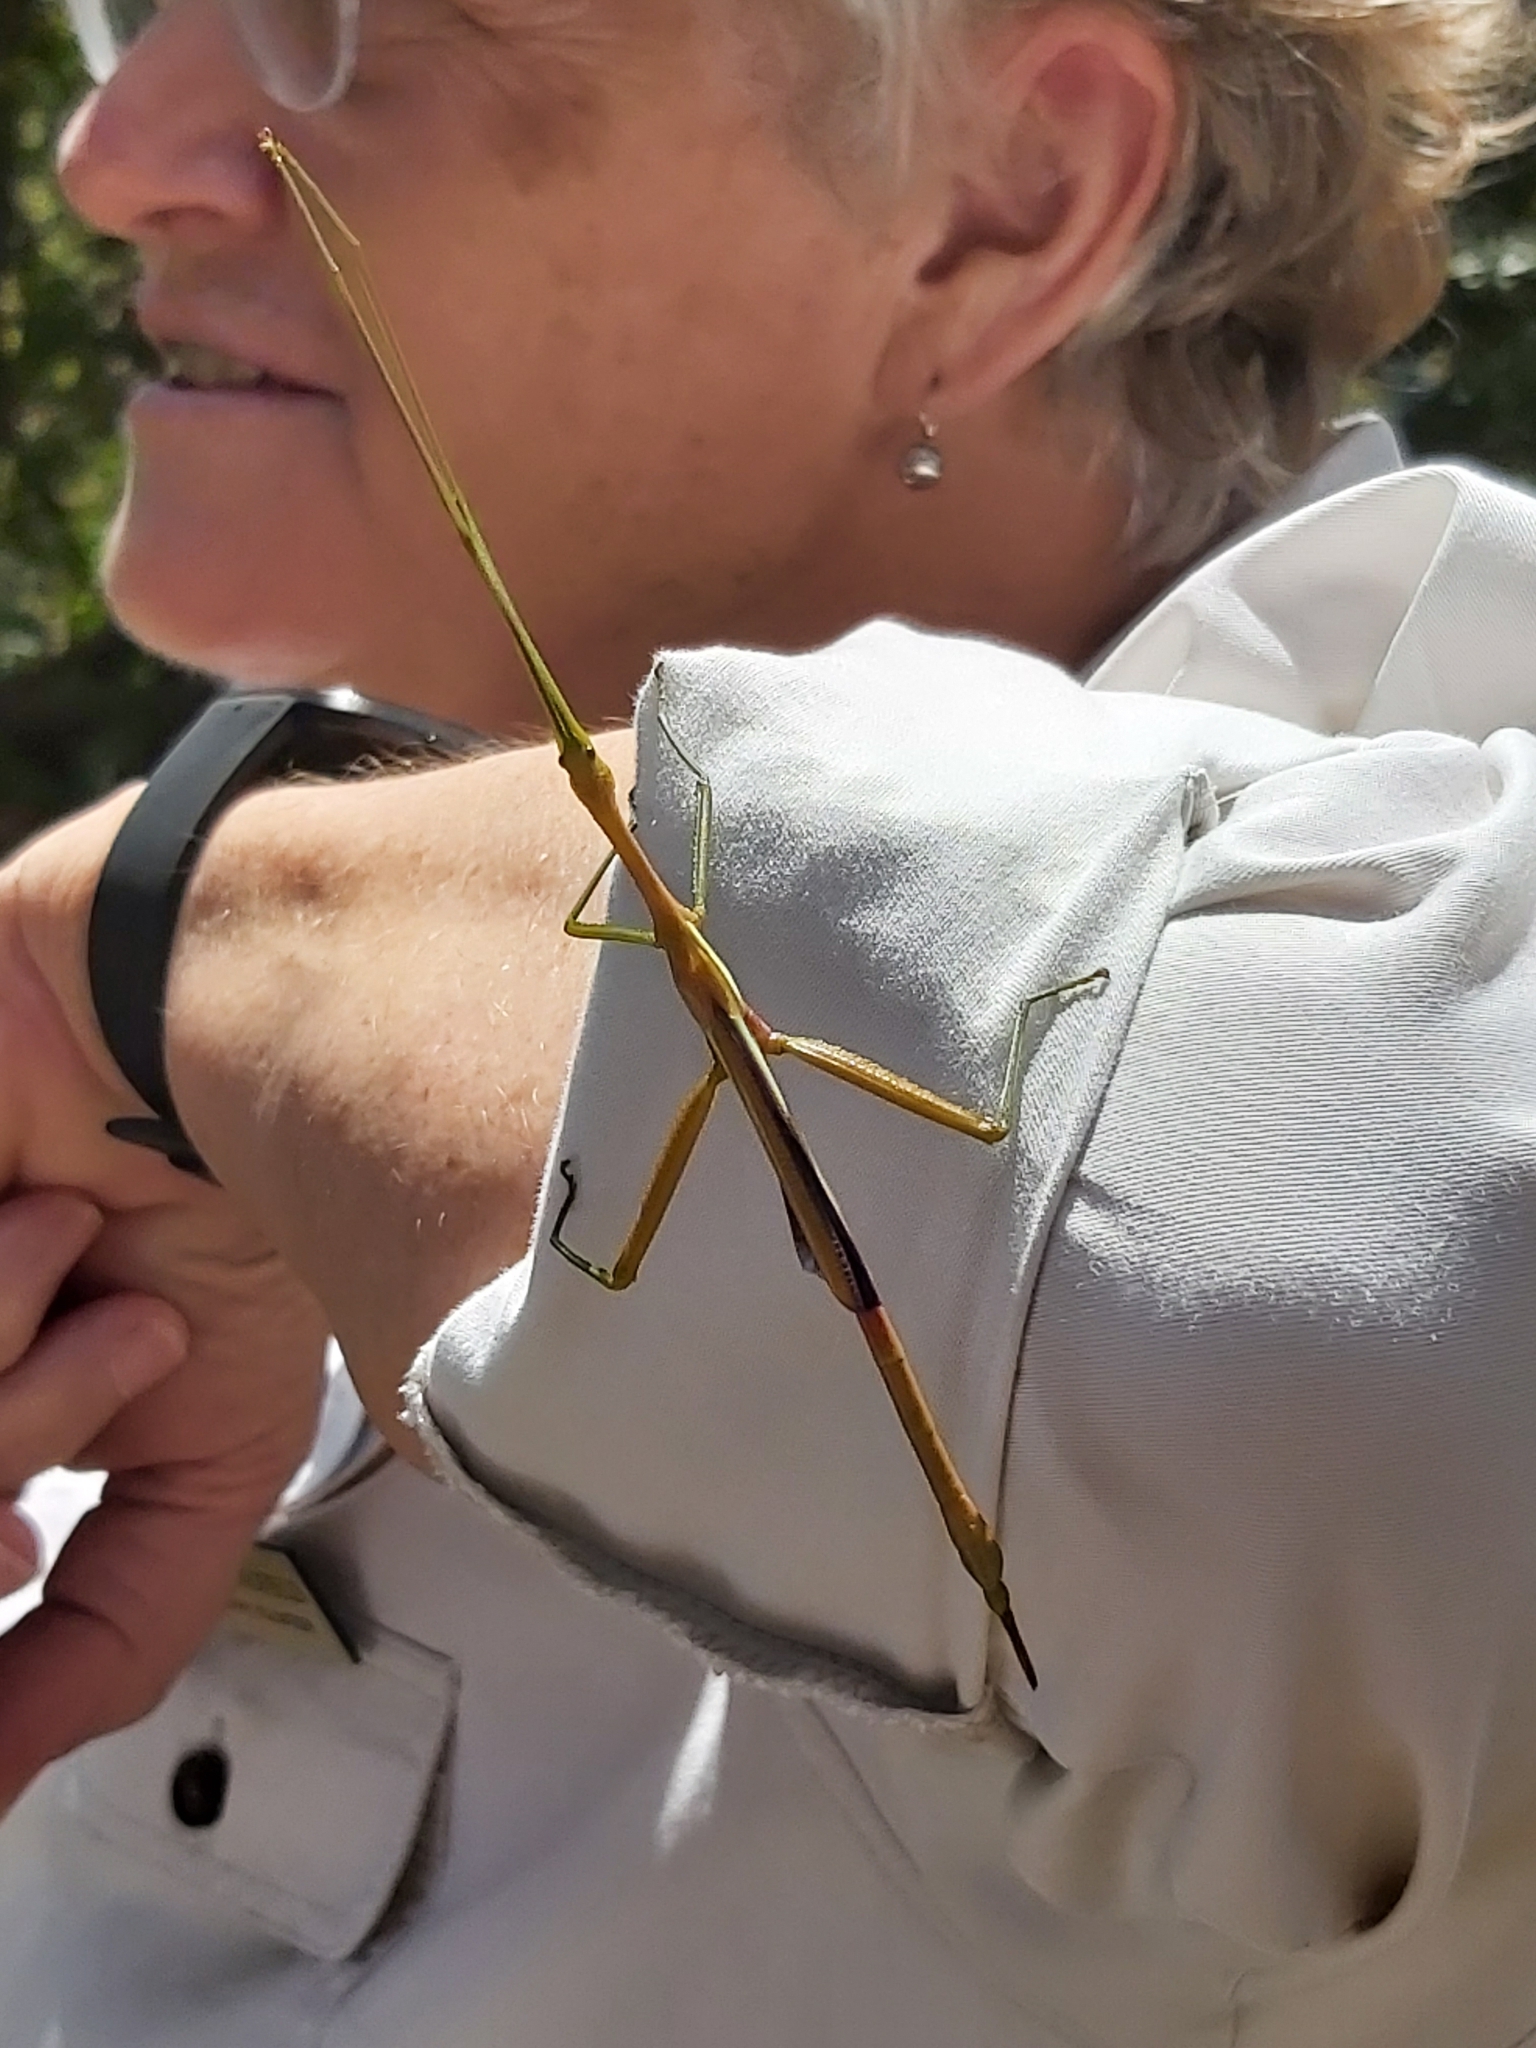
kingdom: Animalia
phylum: Arthropoda
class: Insecta
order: Phasmida
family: Phasmatidae
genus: Didymuria
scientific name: Didymuria violescens
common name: Spur-legged stick-insect
